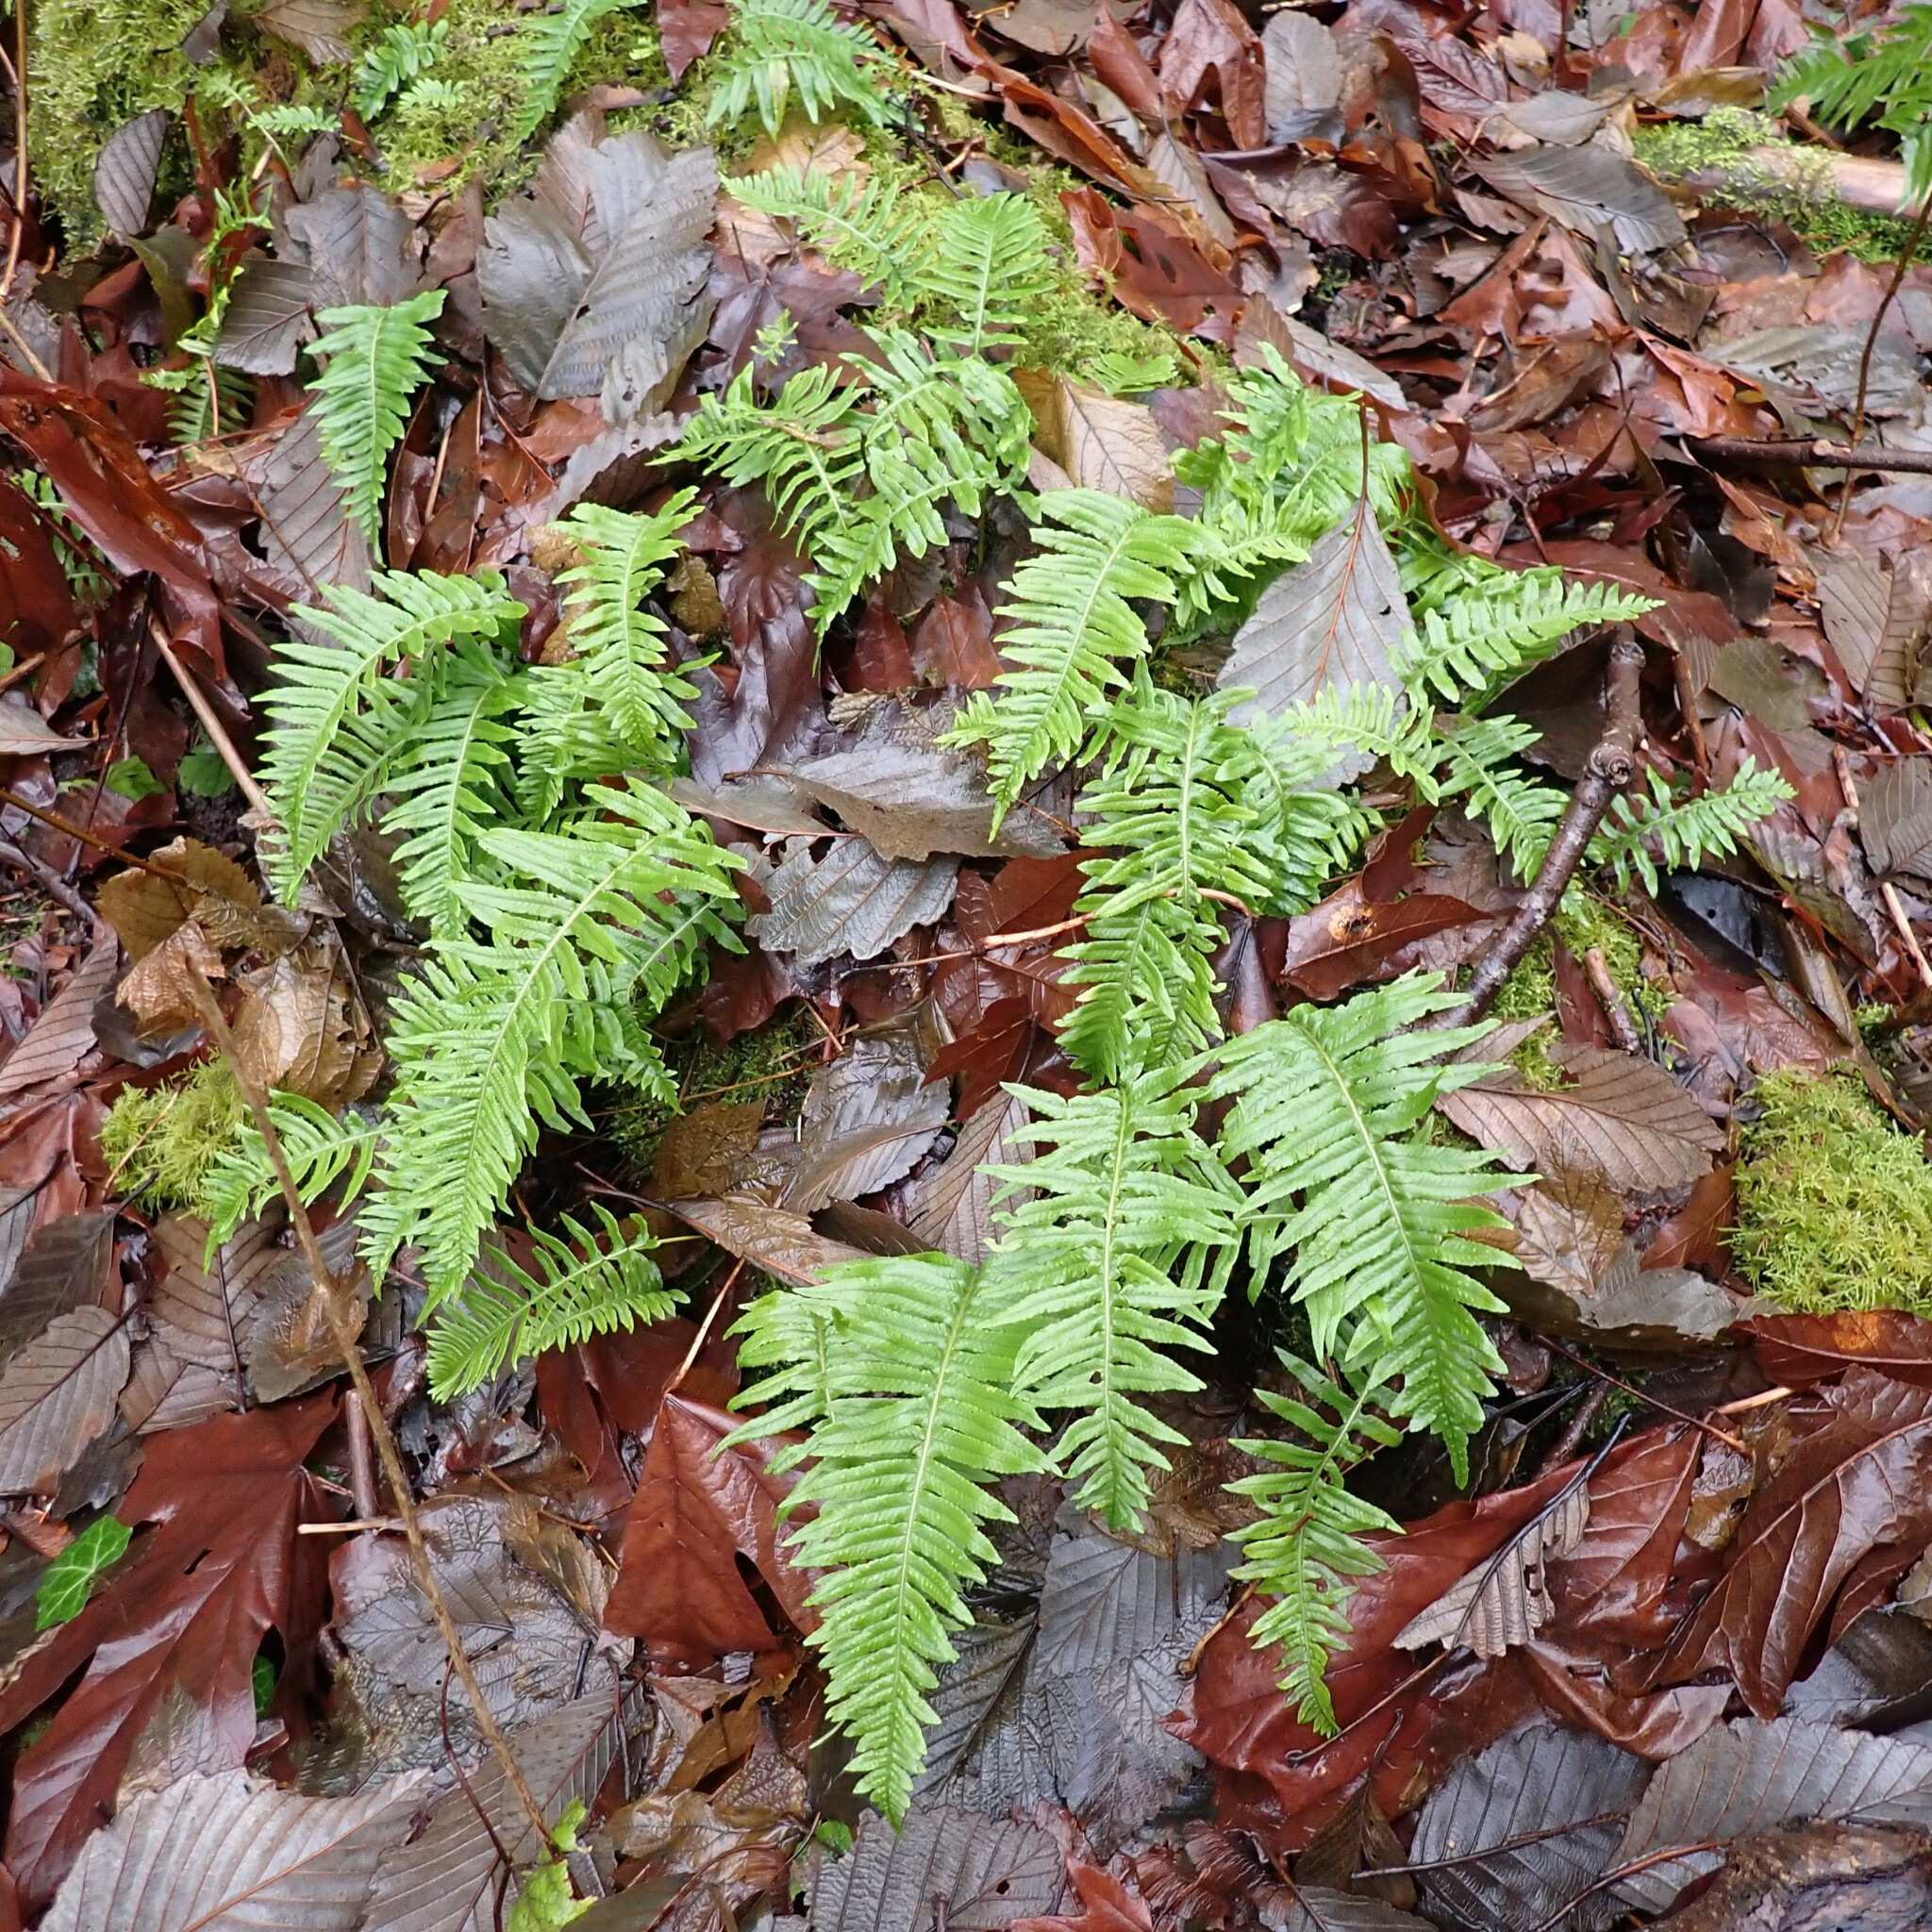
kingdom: Plantae
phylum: Tracheophyta
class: Polypodiopsida
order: Polypodiales
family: Polypodiaceae
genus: Polypodium
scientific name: Polypodium glycyrrhiza
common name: Licorice fern
